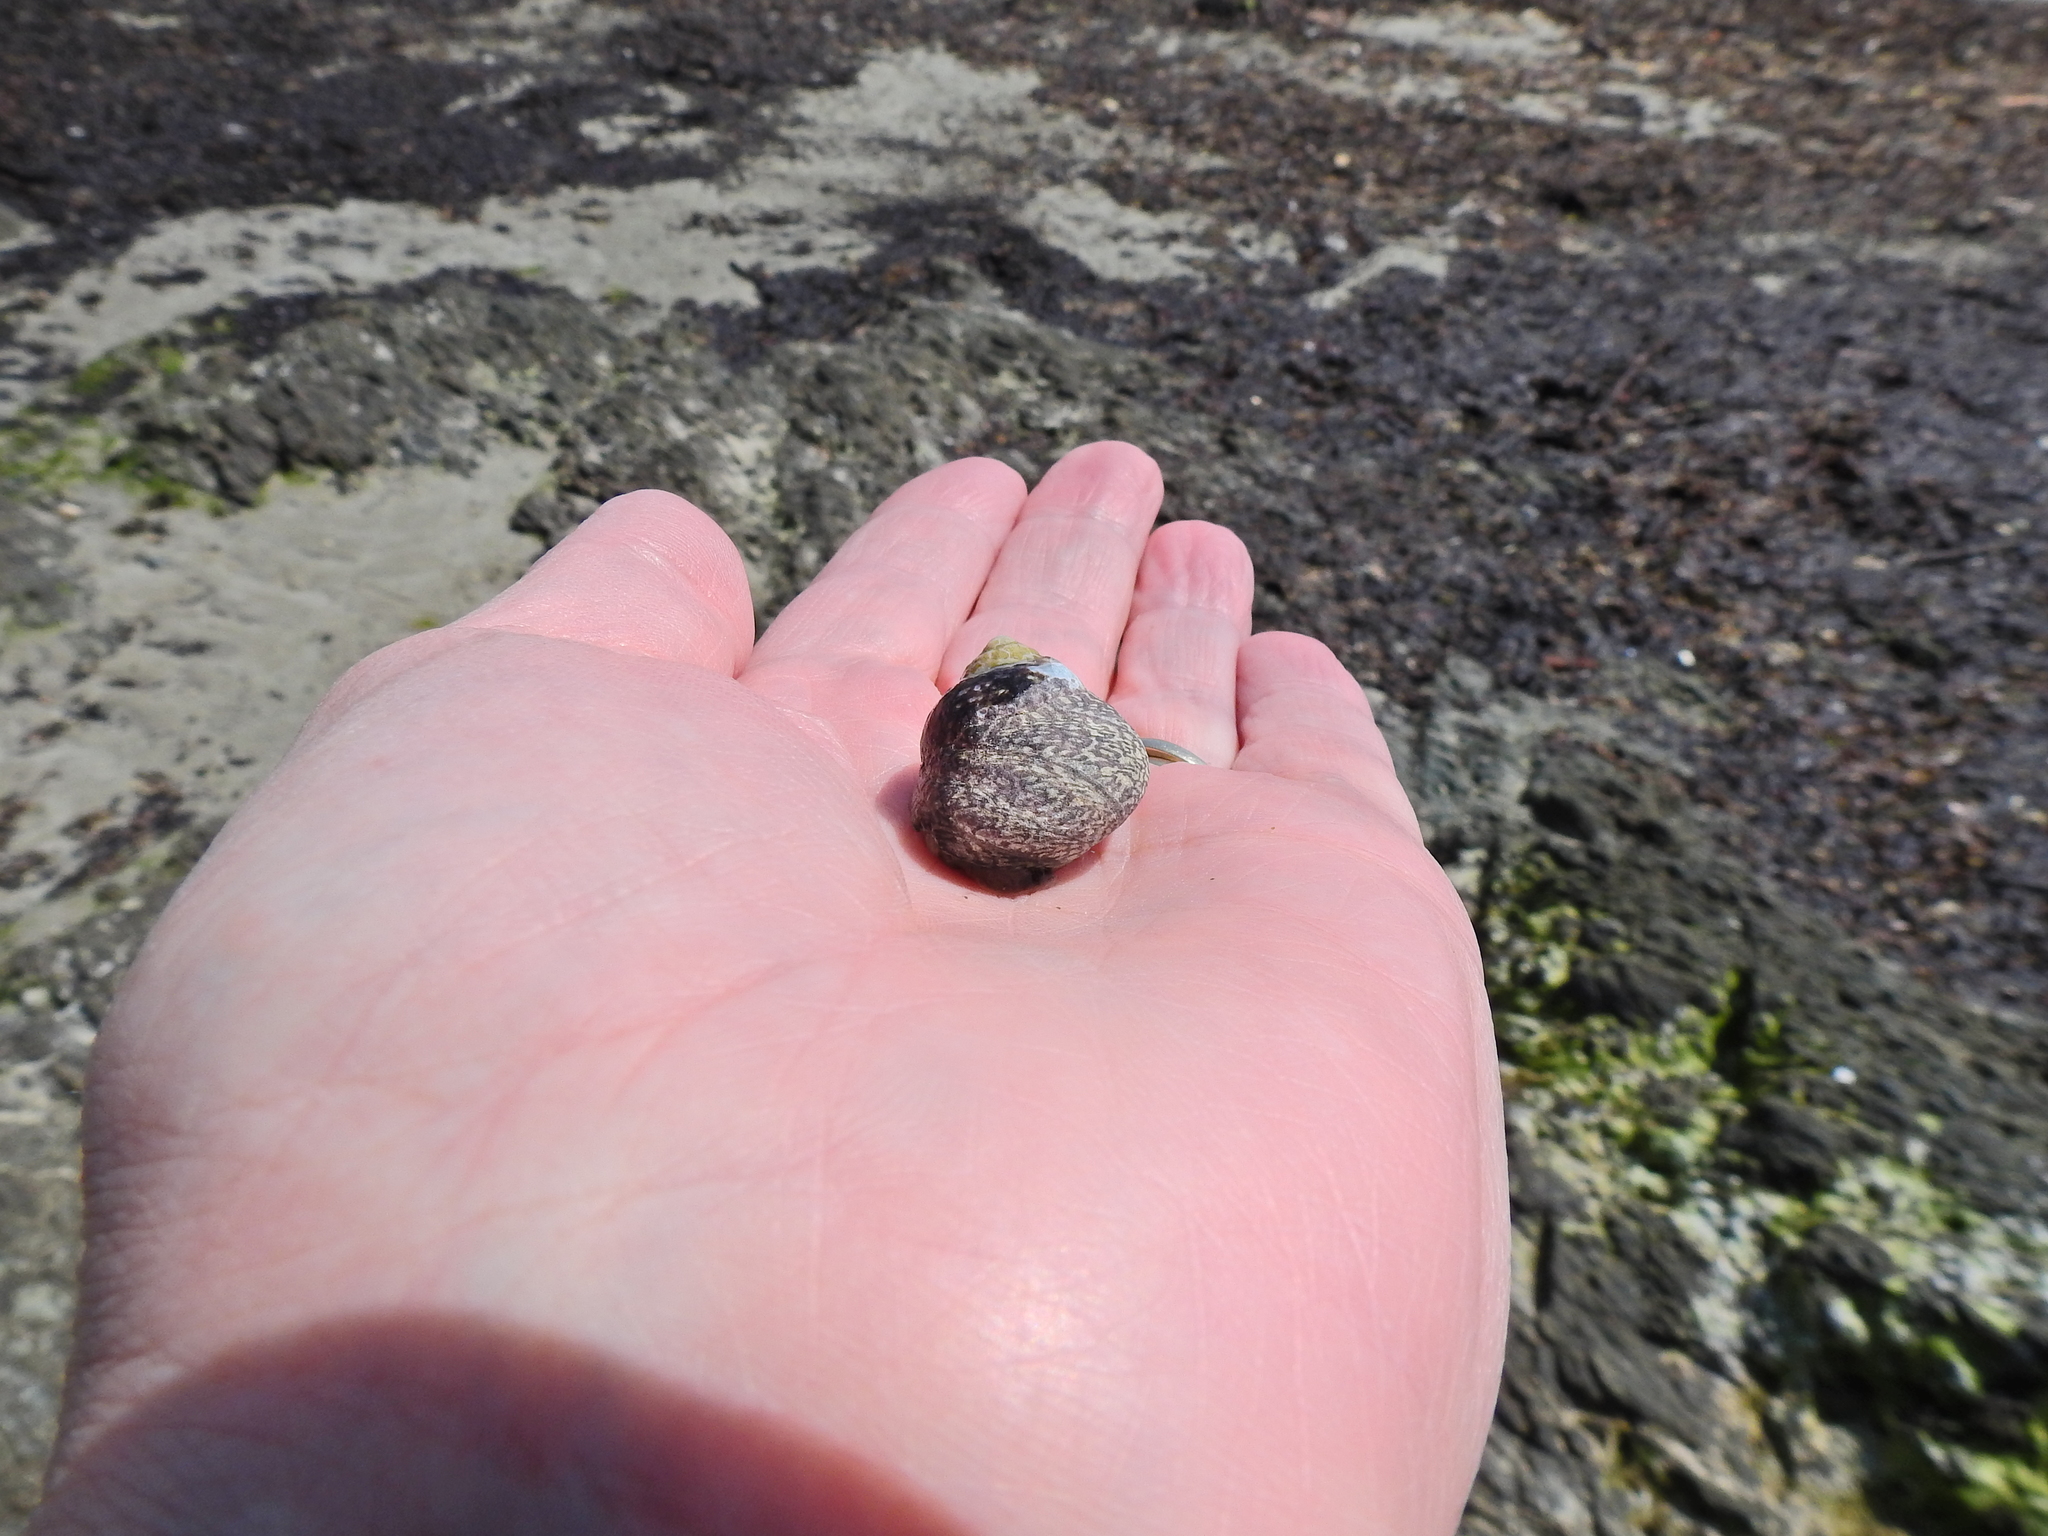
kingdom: Animalia
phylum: Mollusca
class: Gastropoda
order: Trochida
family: Trochidae
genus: Phorcus
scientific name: Phorcus lineatus
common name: Toothed top shell
